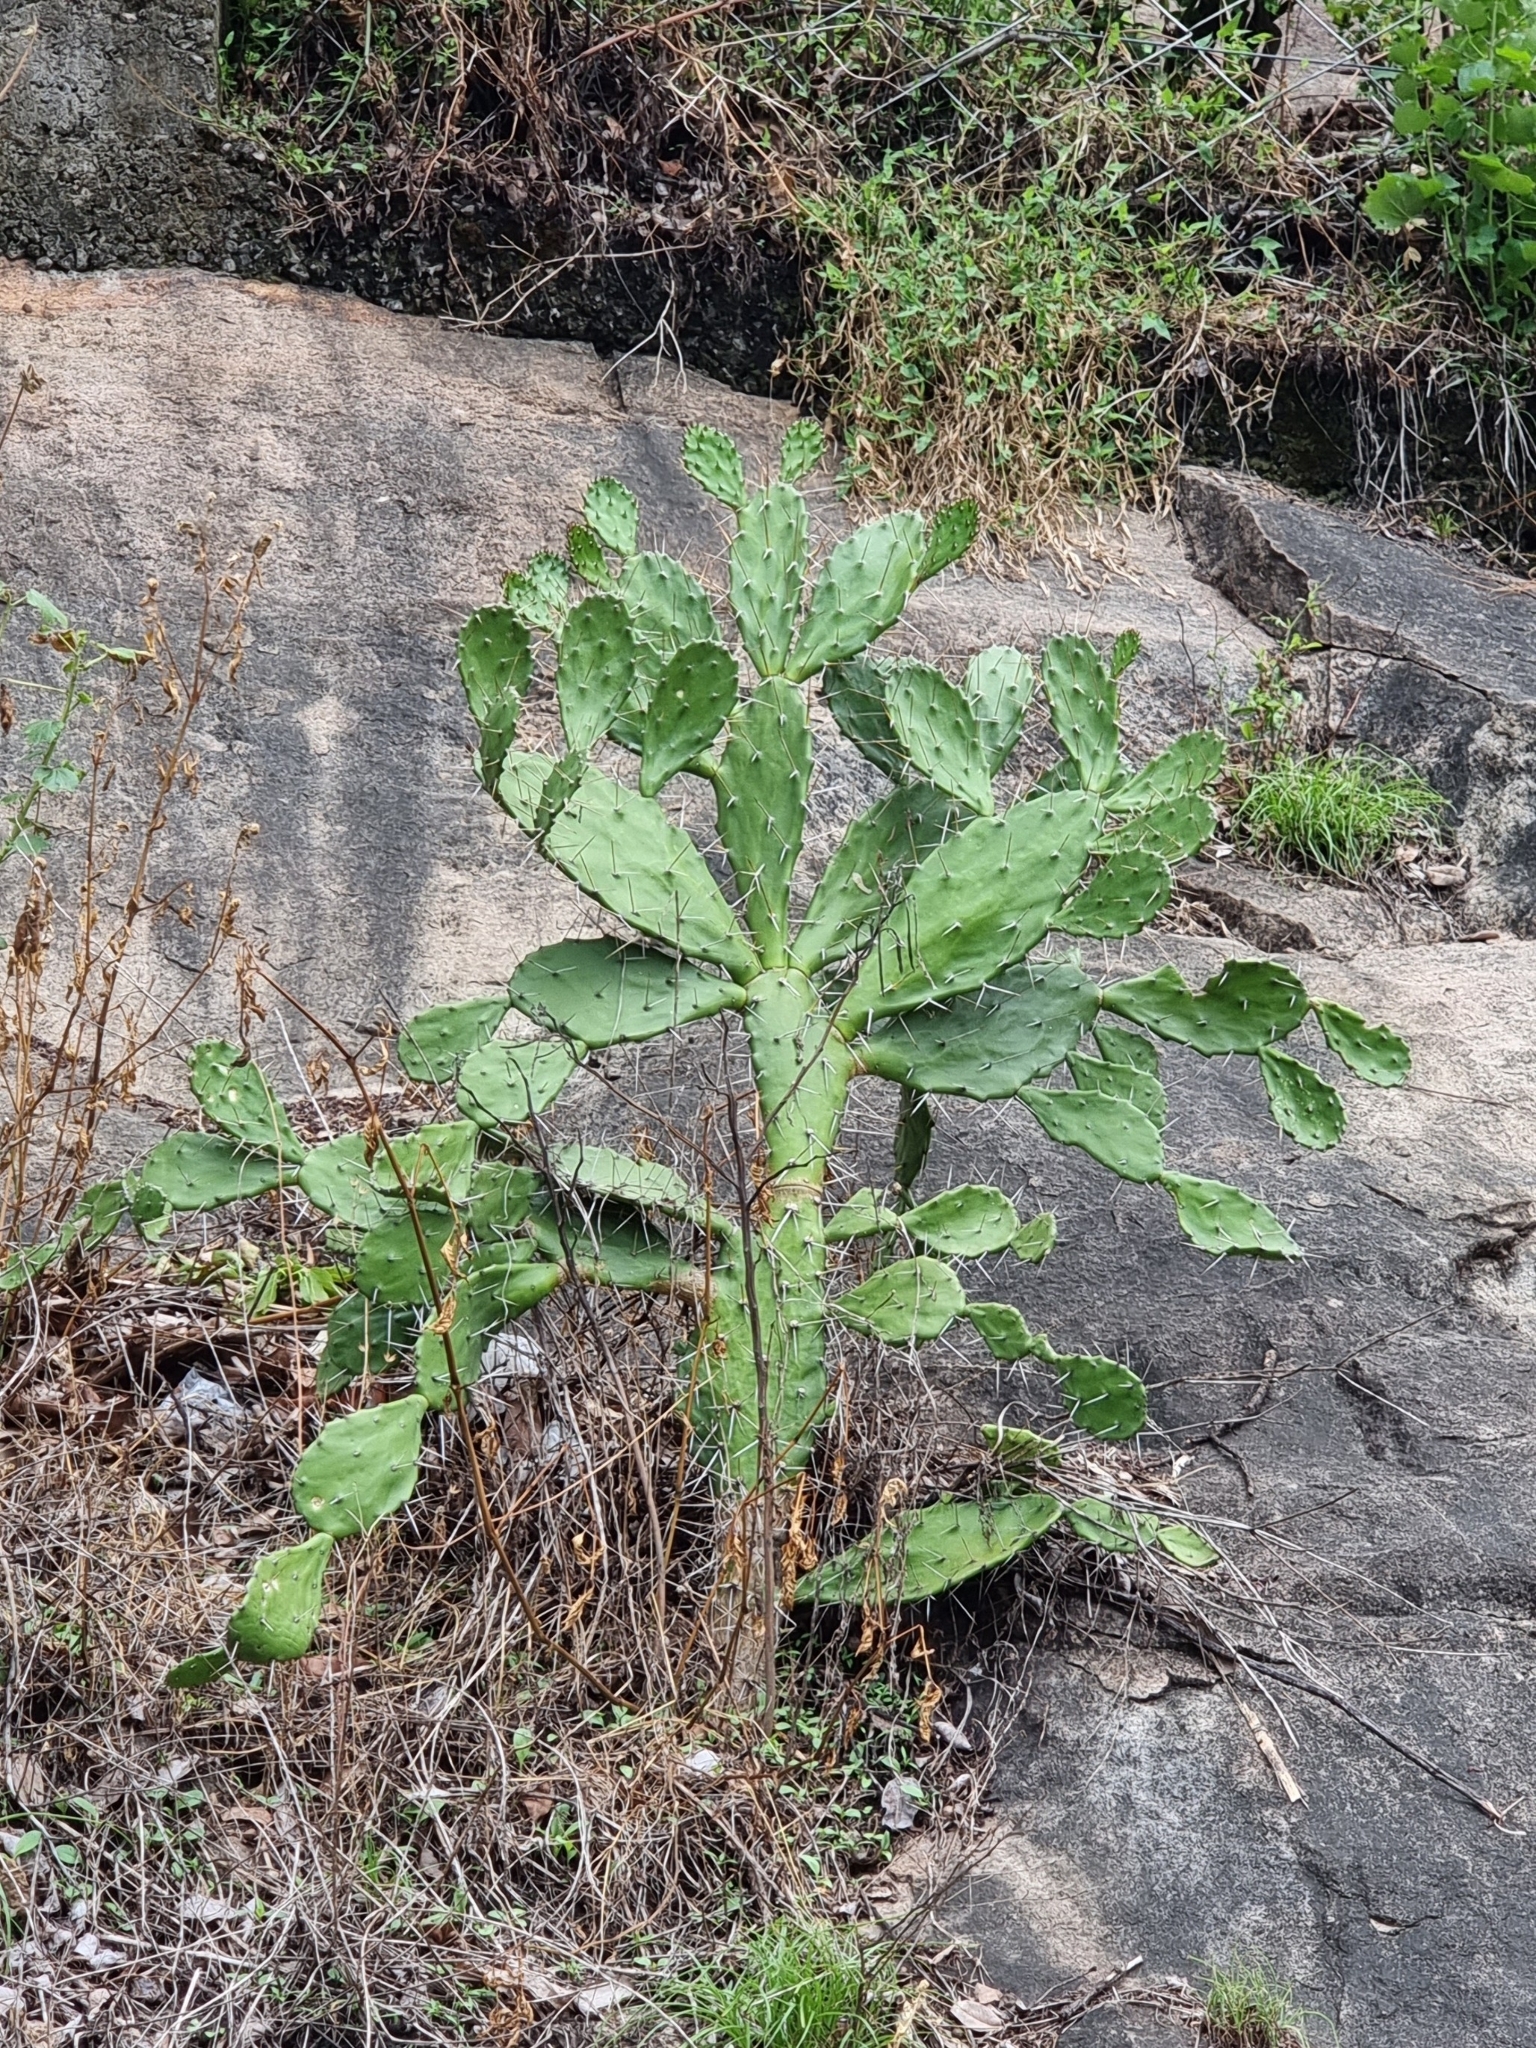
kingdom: Plantae
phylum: Tracheophyta
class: Magnoliopsida
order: Caryophyllales
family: Cactaceae
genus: Opuntia
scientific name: Opuntia monacantha
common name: Common pricklypear
